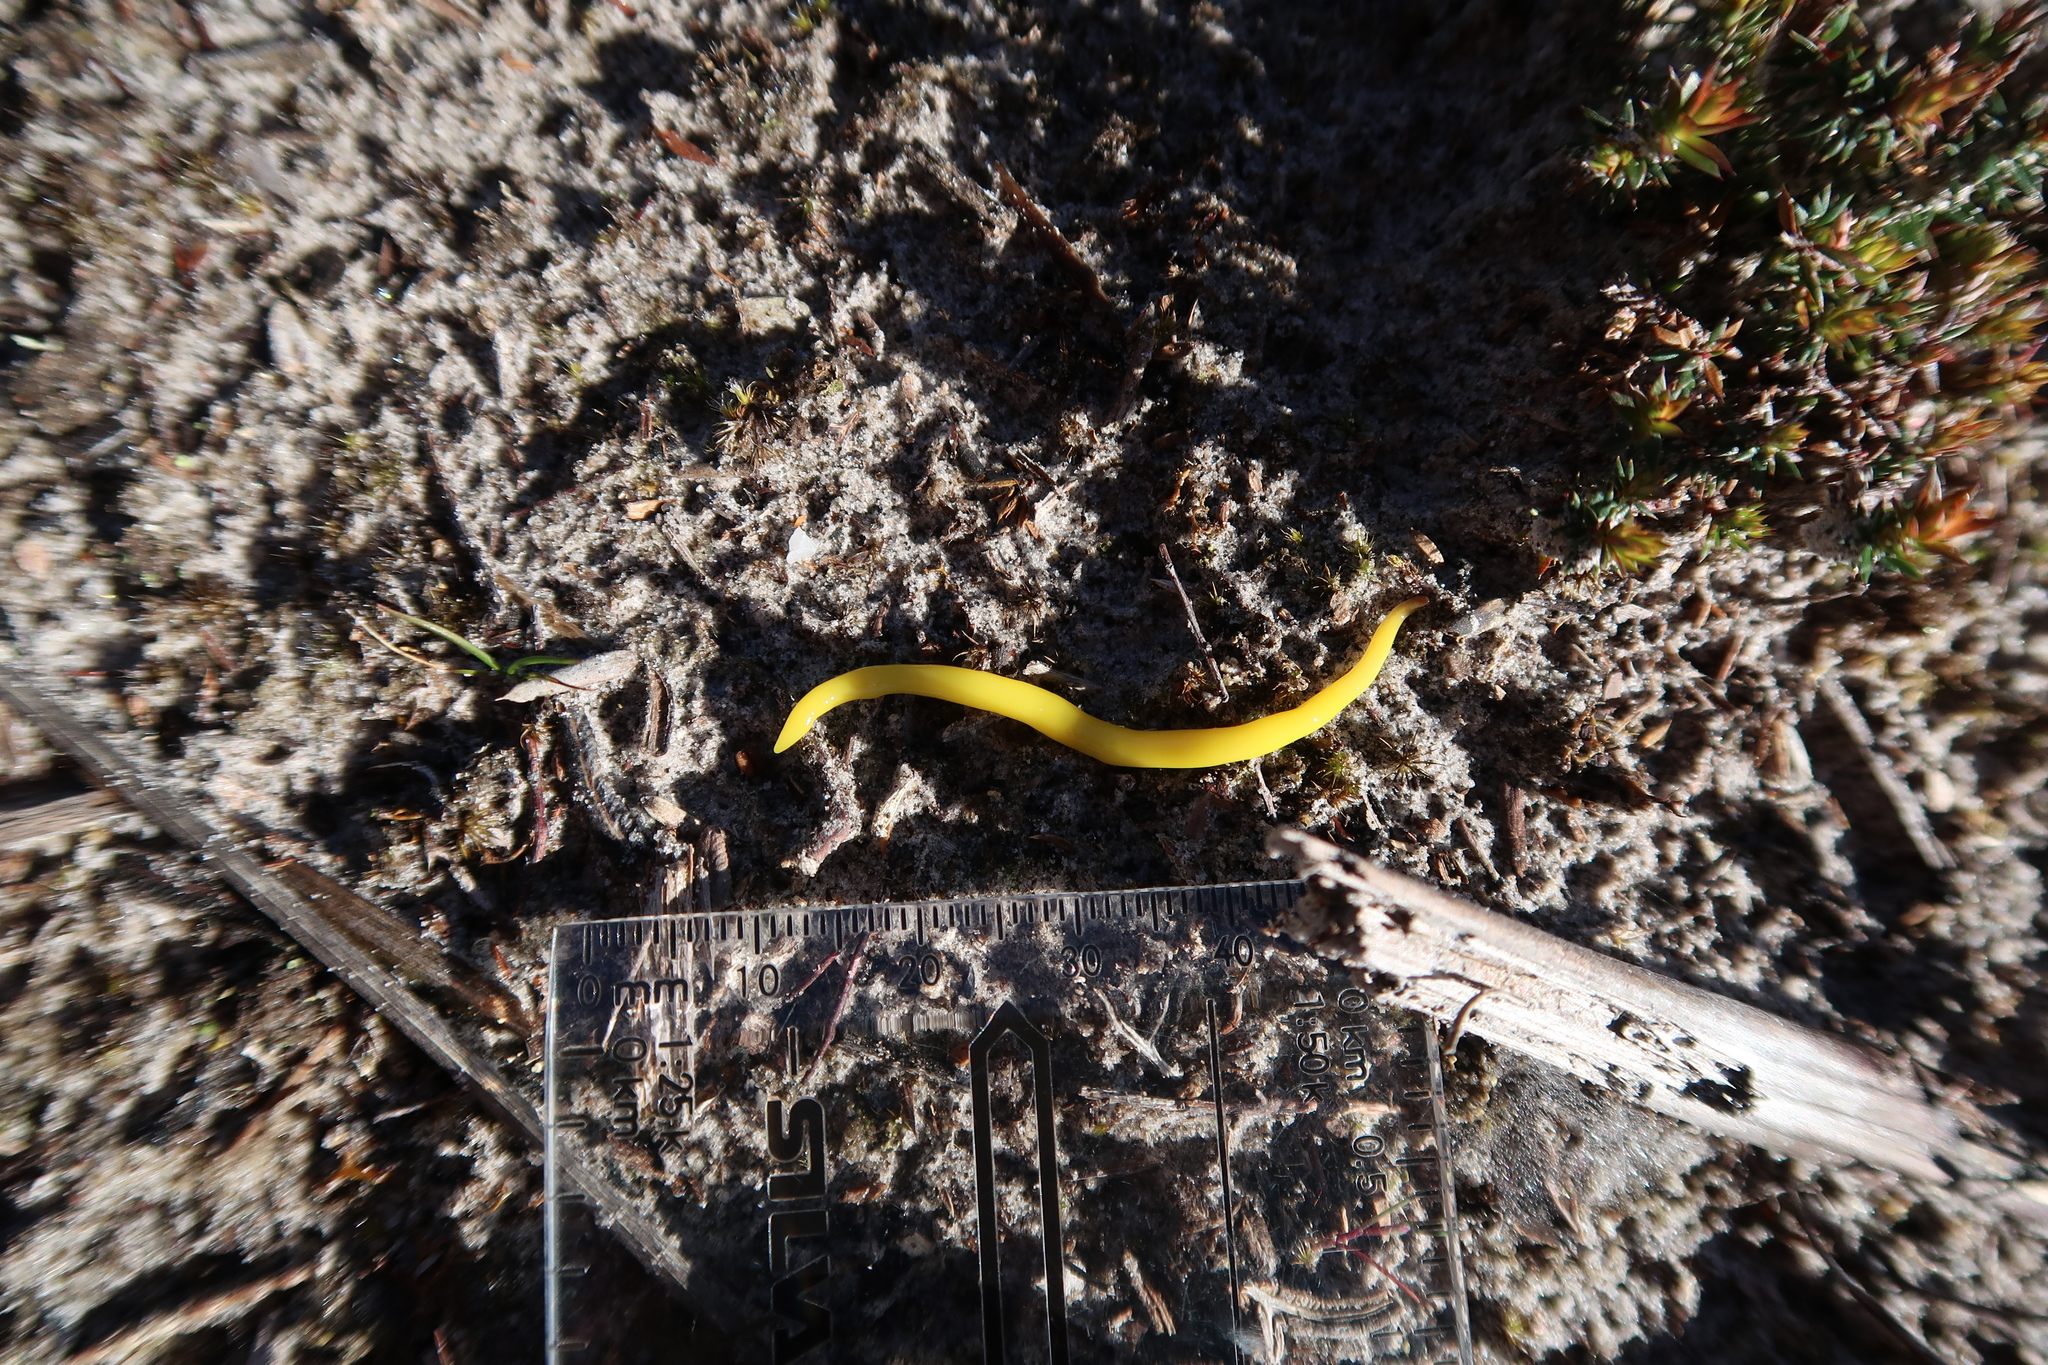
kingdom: Animalia
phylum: Platyhelminthes
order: Tricladida
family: Geoplanidae
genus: Fletchamia
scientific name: Fletchamia sugdeni
